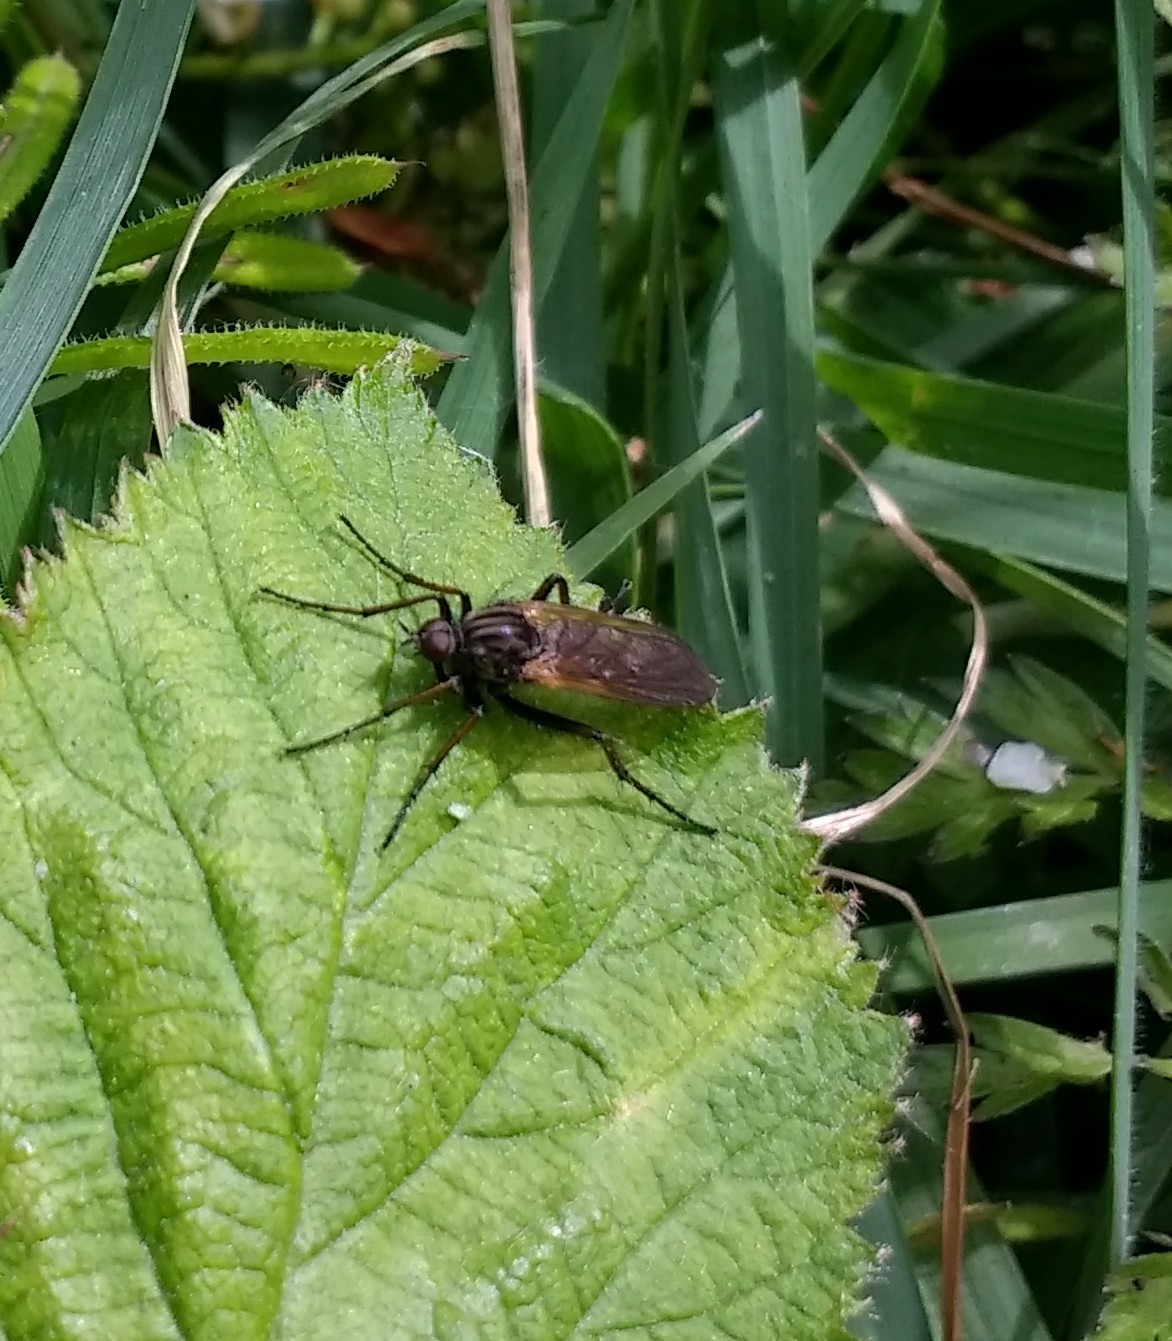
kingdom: Animalia
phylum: Arthropoda
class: Insecta
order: Diptera
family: Empididae
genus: Empis
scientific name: Empis tessellata
